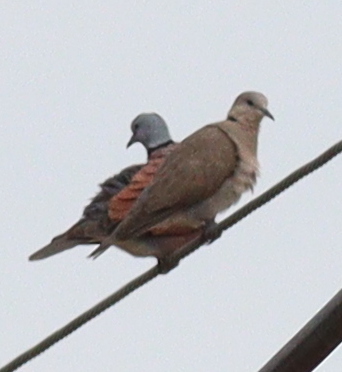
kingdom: Animalia
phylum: Chordata
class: Aves
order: Columbiformes
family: Columbidae
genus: Streptopelia
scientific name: Streptopelia tranquebarica
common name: Red turtle dove
